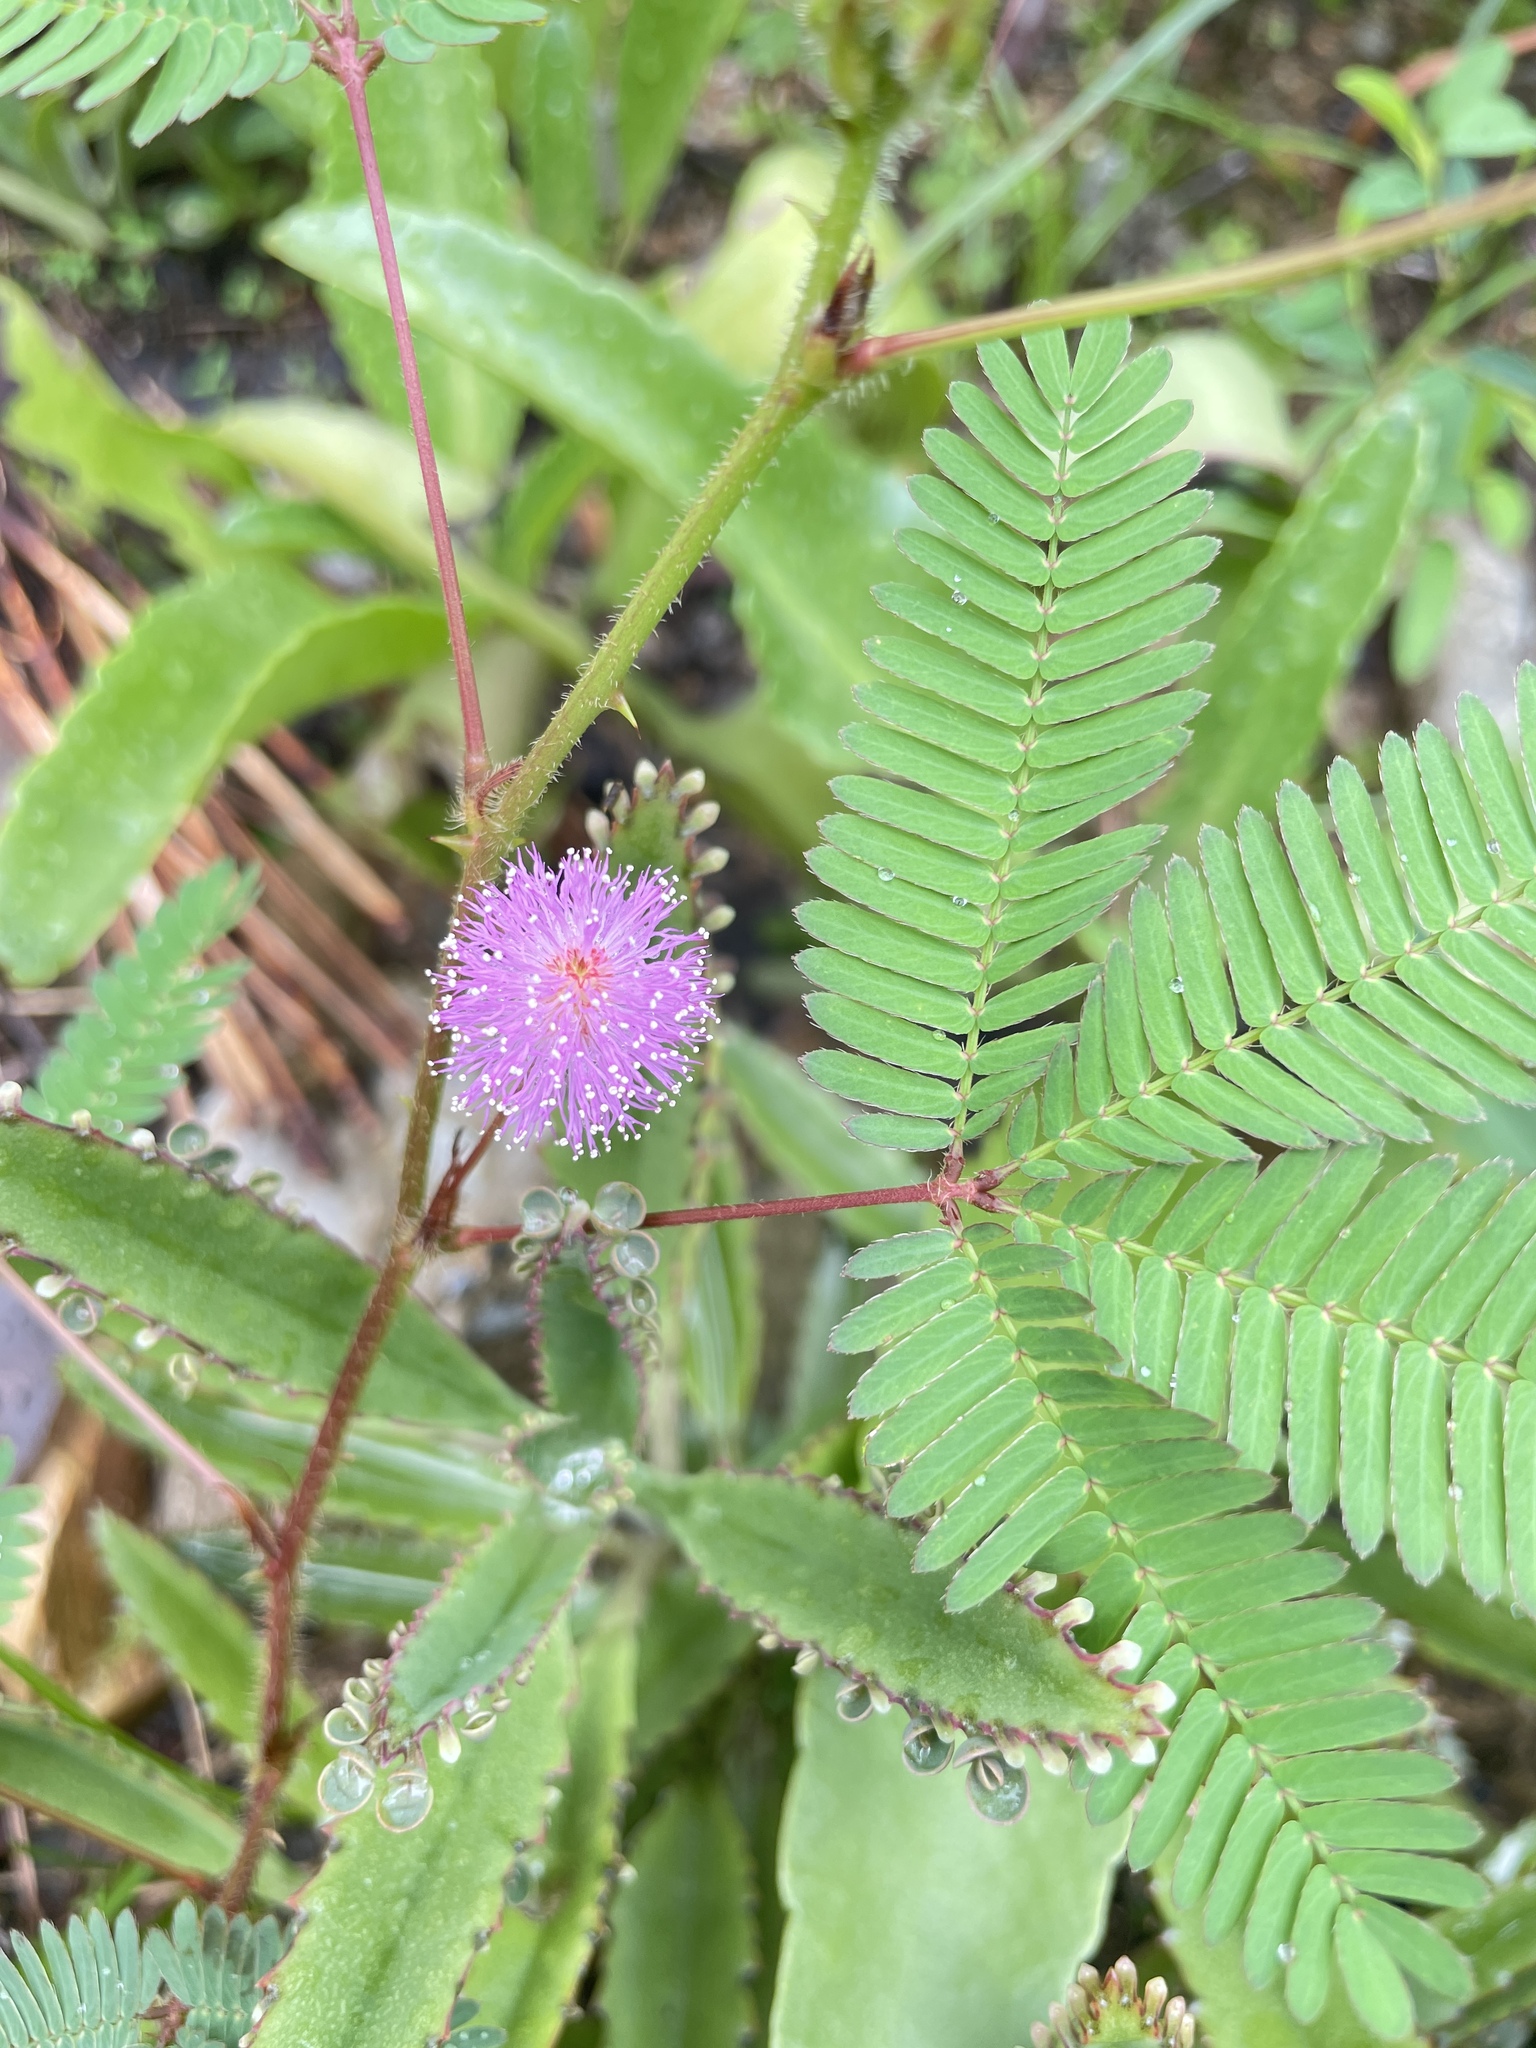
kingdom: Plantae
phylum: Tracheophyta
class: Magnoliopsida
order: Fabales
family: Fabaceae
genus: Mimosa
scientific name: Mimosa pudica
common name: Sensitive plant
